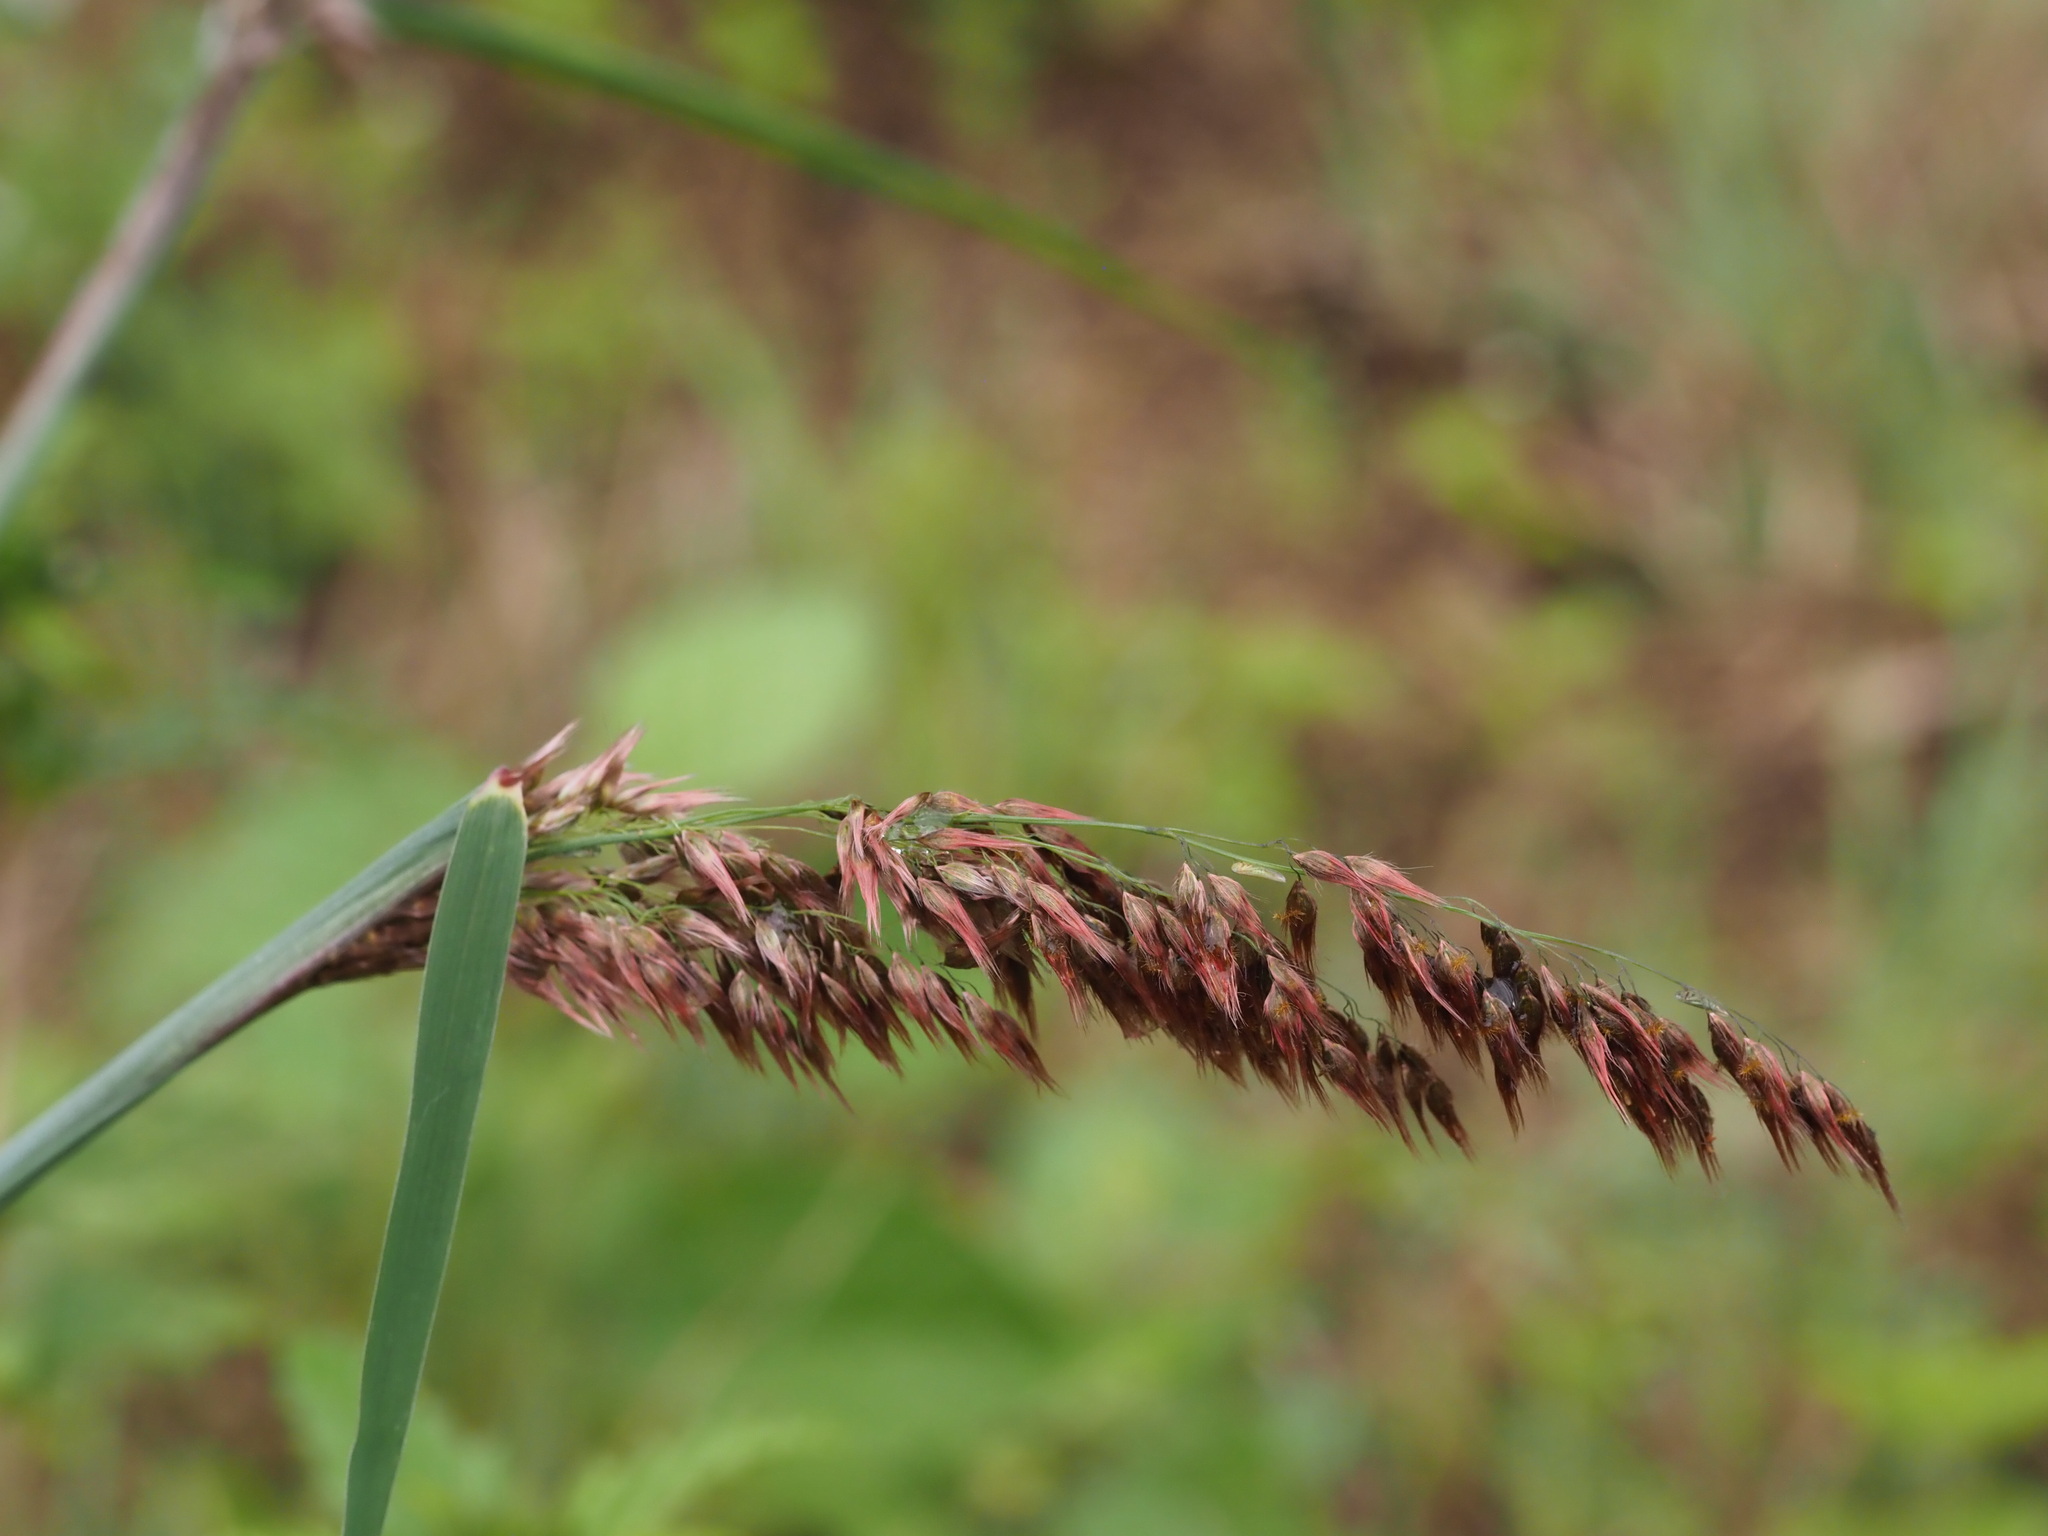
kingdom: Plantae
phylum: Tracheophyta
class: Liliopsida
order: Poales
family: Poaceae
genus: Melinis
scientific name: Melinis repens
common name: Rose natal grass
